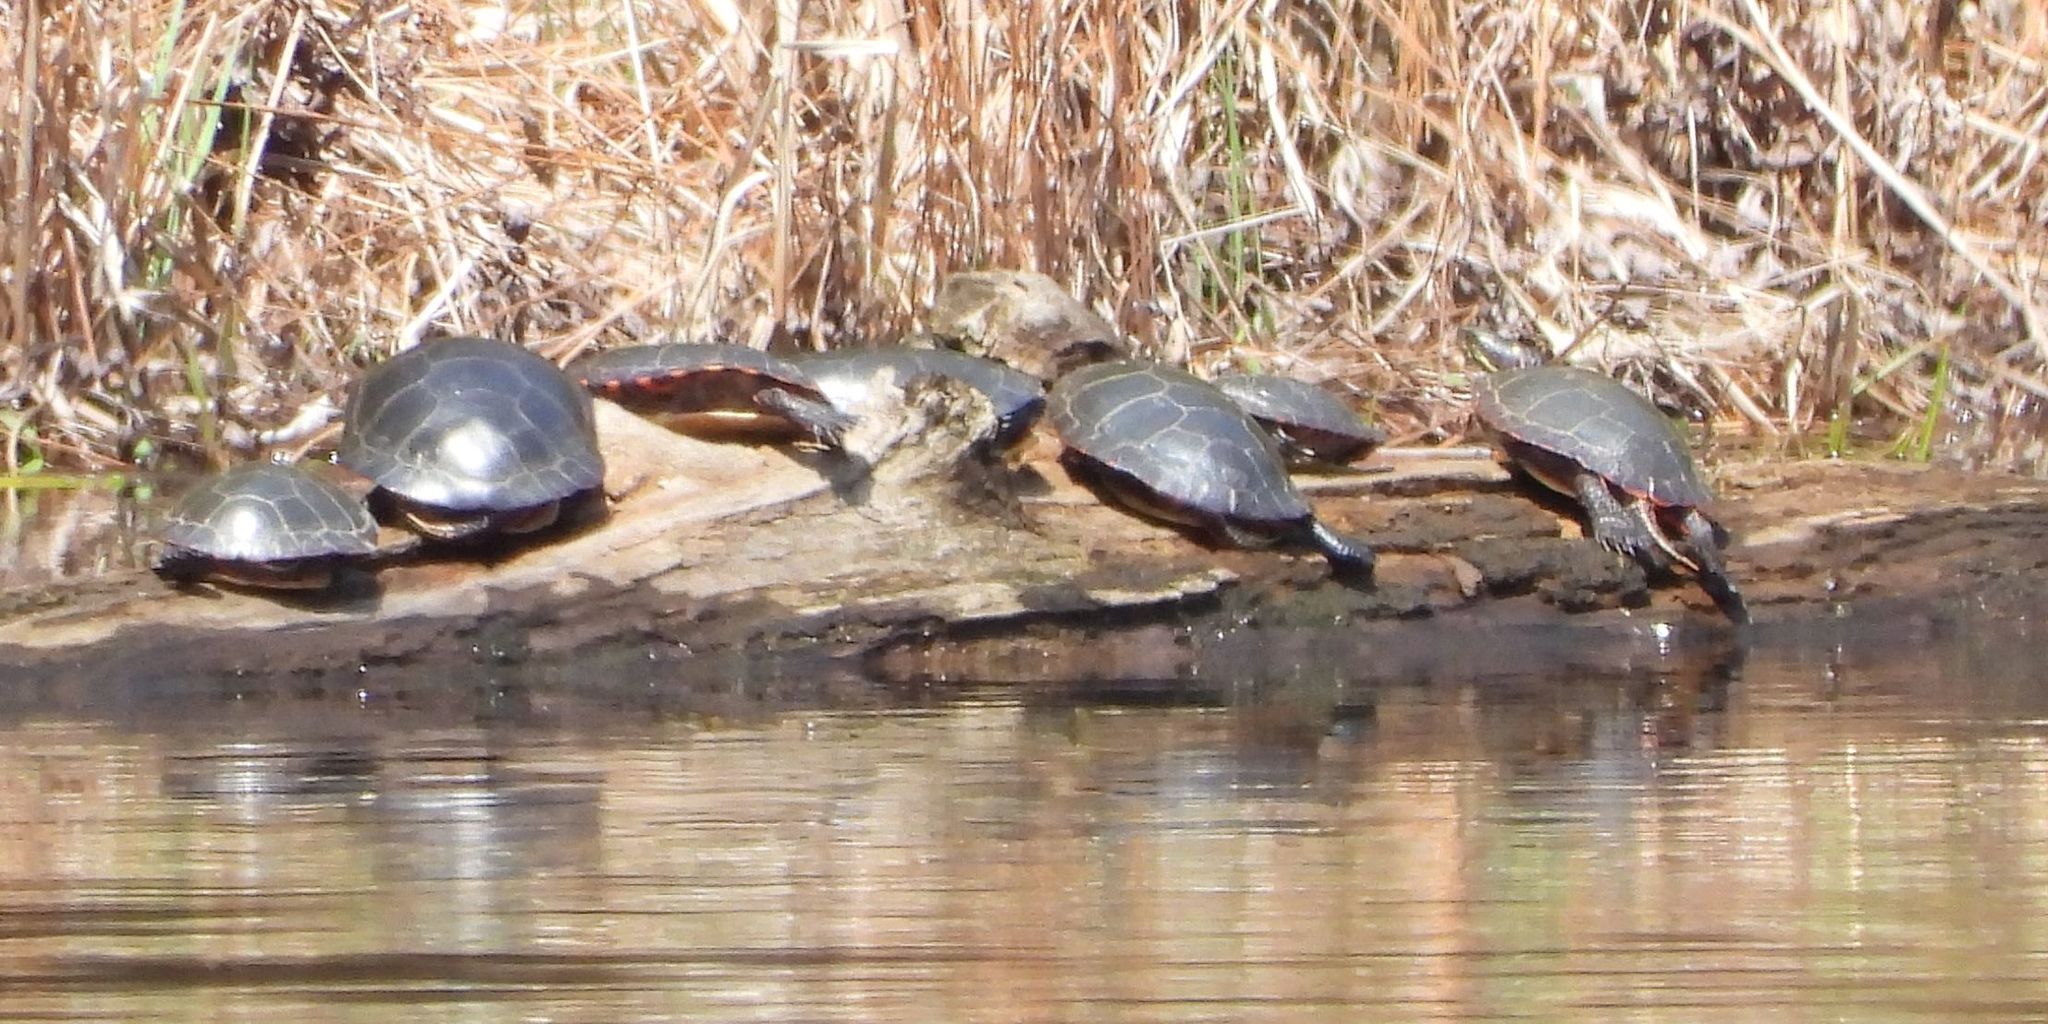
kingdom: Animalia
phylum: Chordata
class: Testudines
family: Emydidae
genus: Chrysemys
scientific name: Chrysemys picta
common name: Painted turtle
